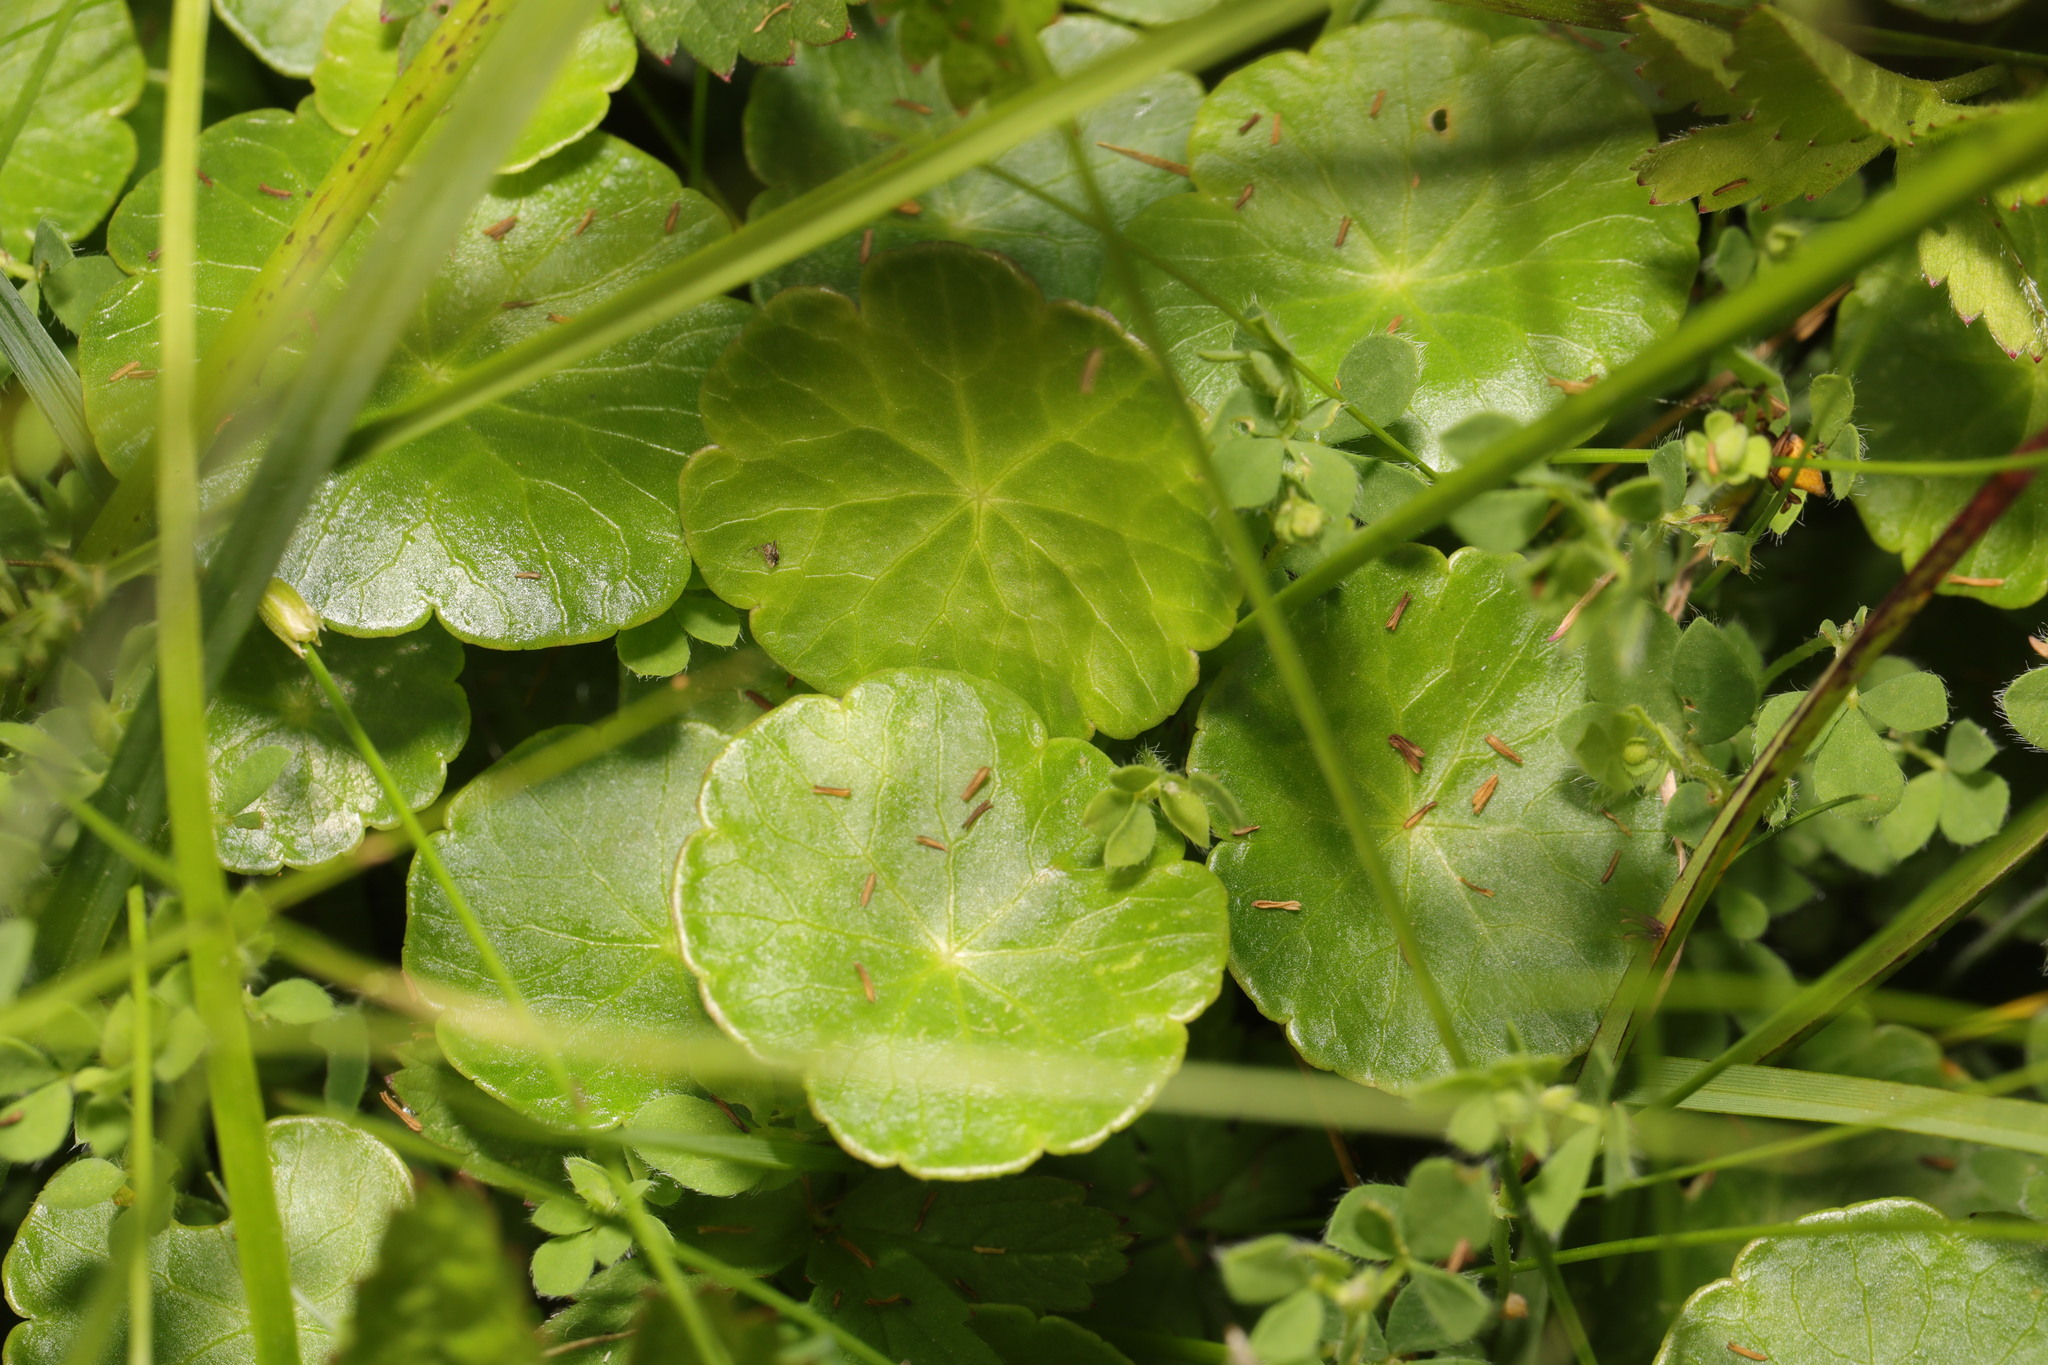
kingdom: Plantae
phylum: Tracheophyta
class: Magnoliopsida
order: Apiales
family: Araliaceae
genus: Hydrocotyle
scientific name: Hydrocotyle vulgaris
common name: Marsh pennywort
